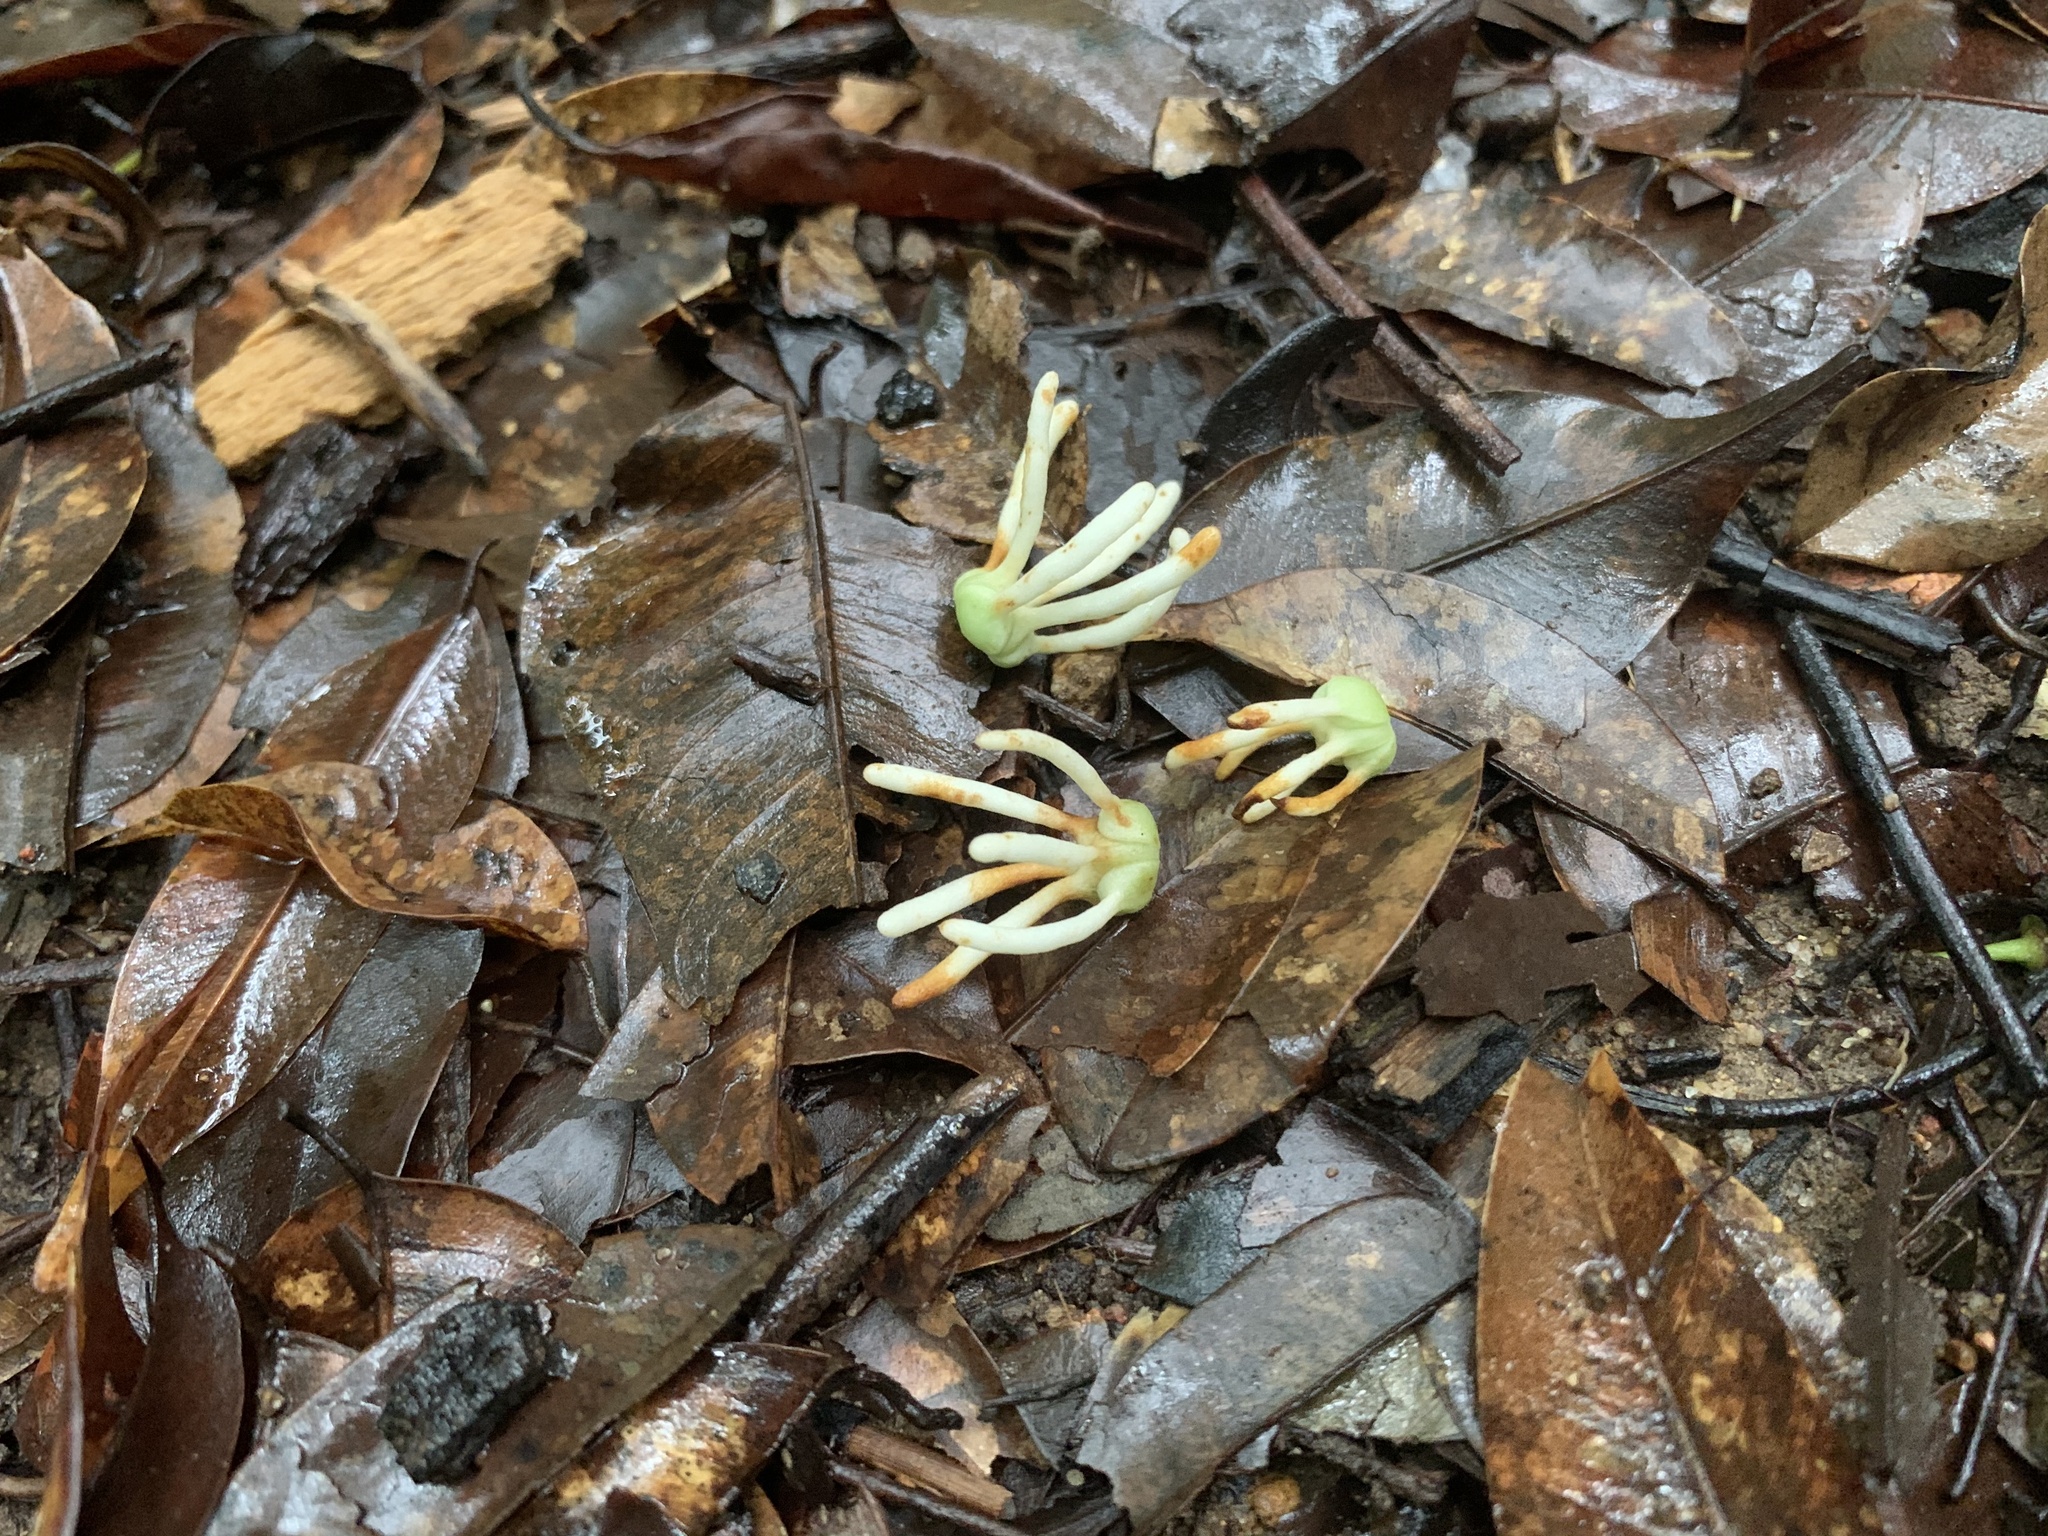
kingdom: Plantae
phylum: Tracheophyta
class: Magnoliopsida
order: Magnoliales
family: Annonaceae
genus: Artabotrys
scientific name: Artabotrys suaveolens
